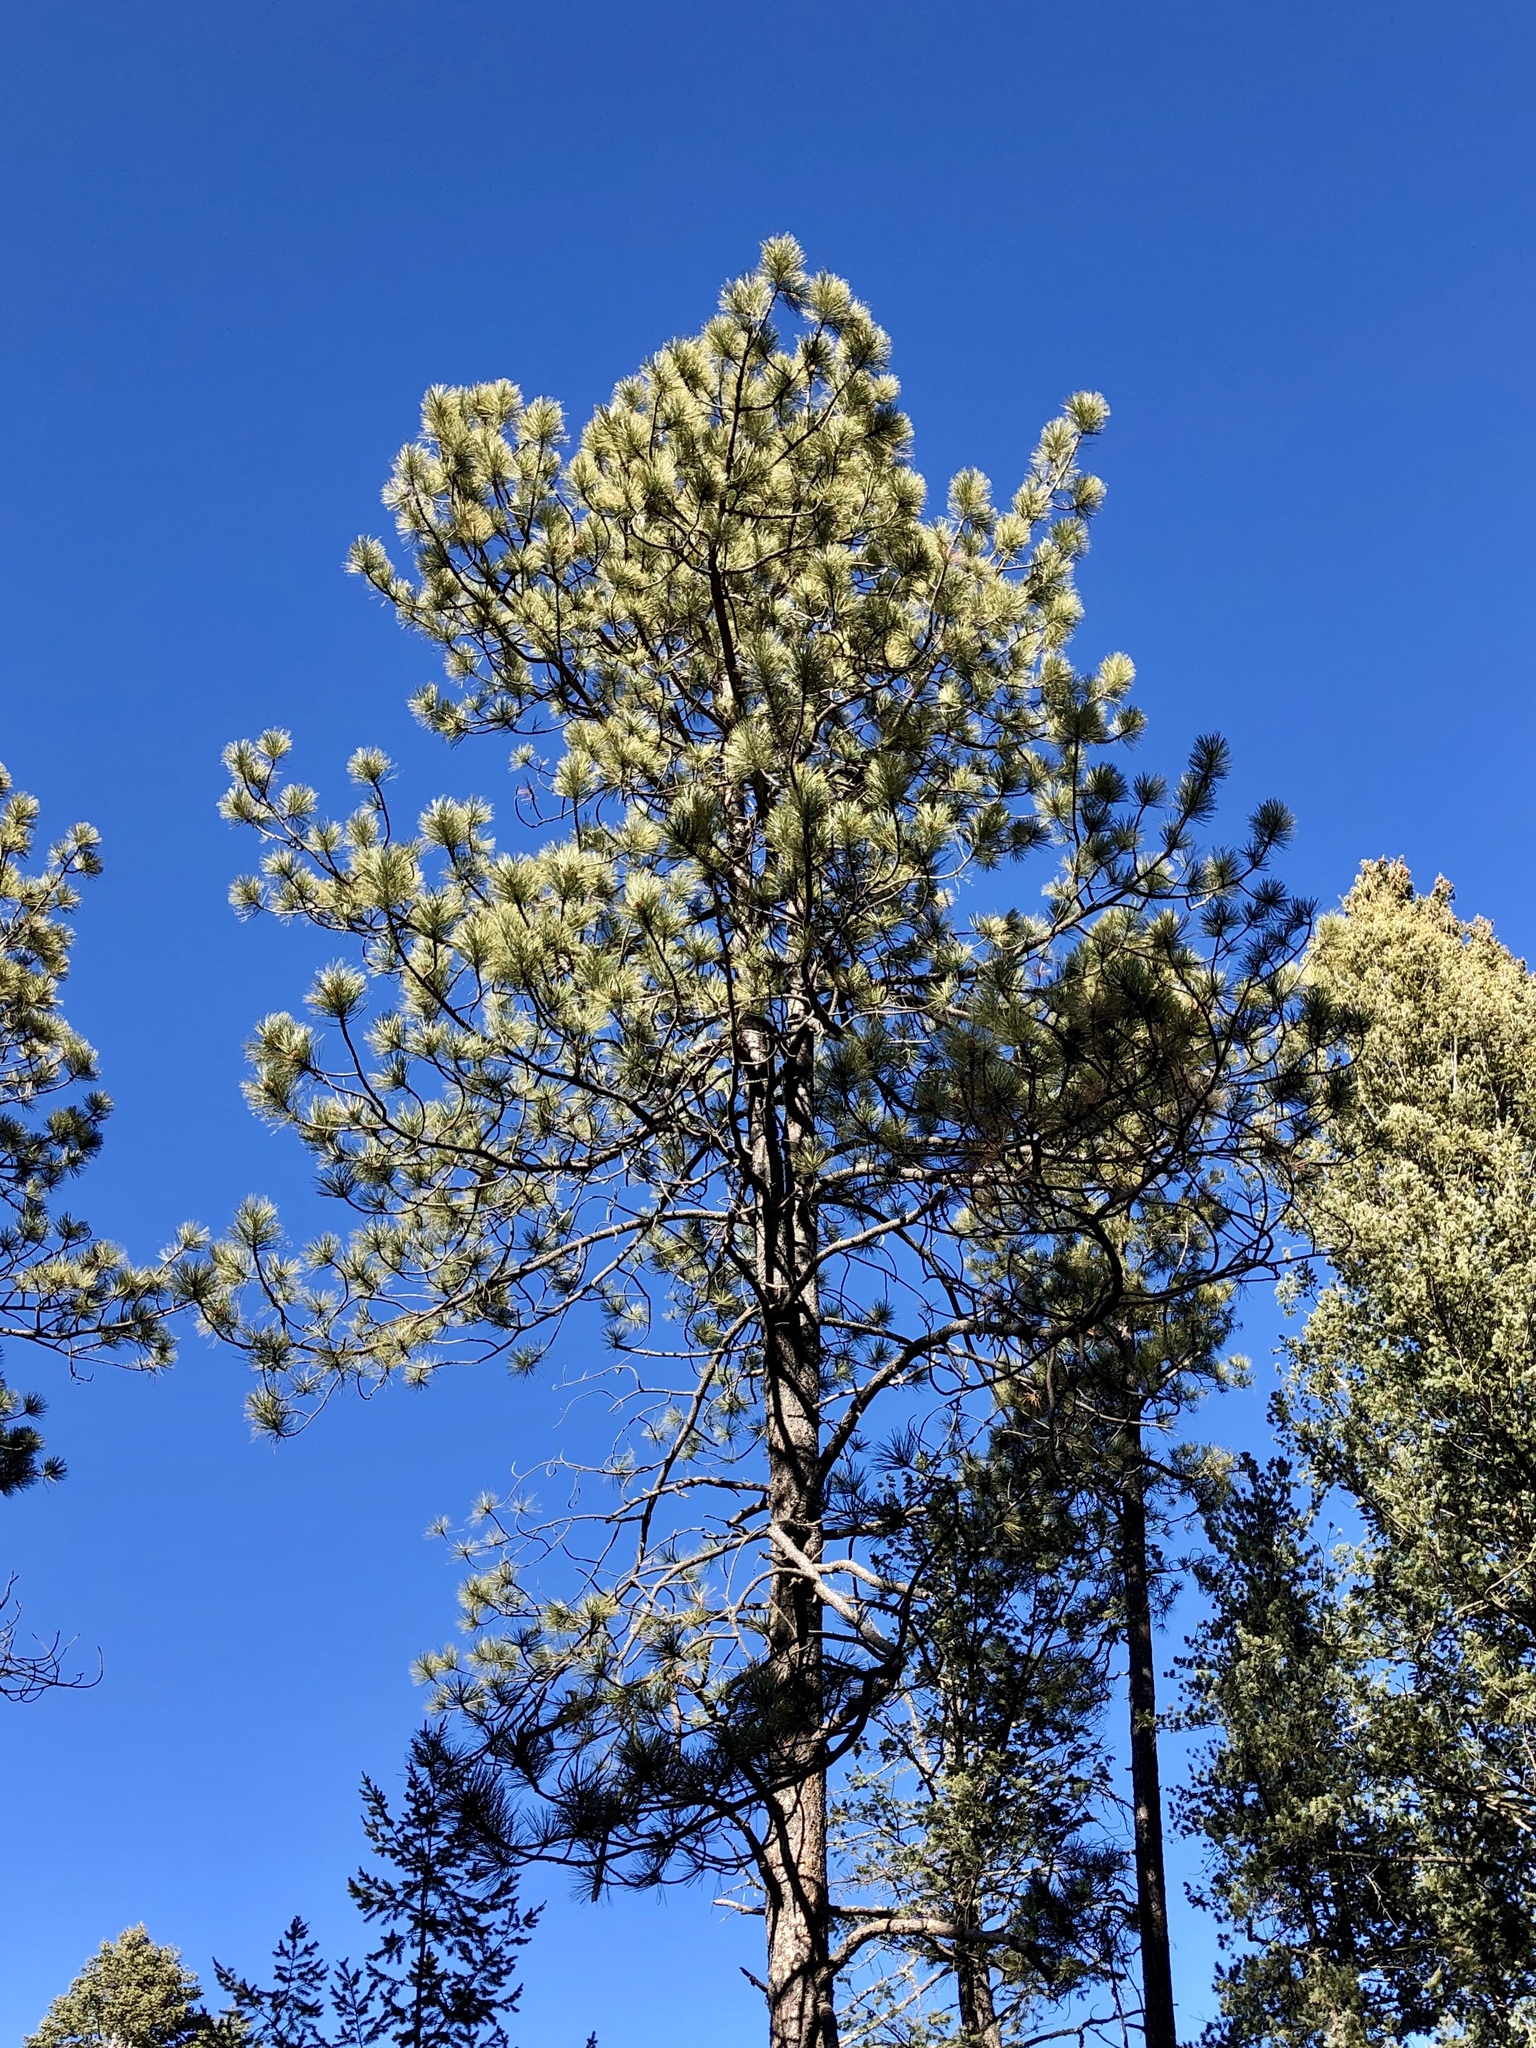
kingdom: Plantae
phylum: Tracheophyta
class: Pinopsida
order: Pinales
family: Pinaceae
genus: Pinus
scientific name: Pinus ponderosa
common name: Western yellow-pine
